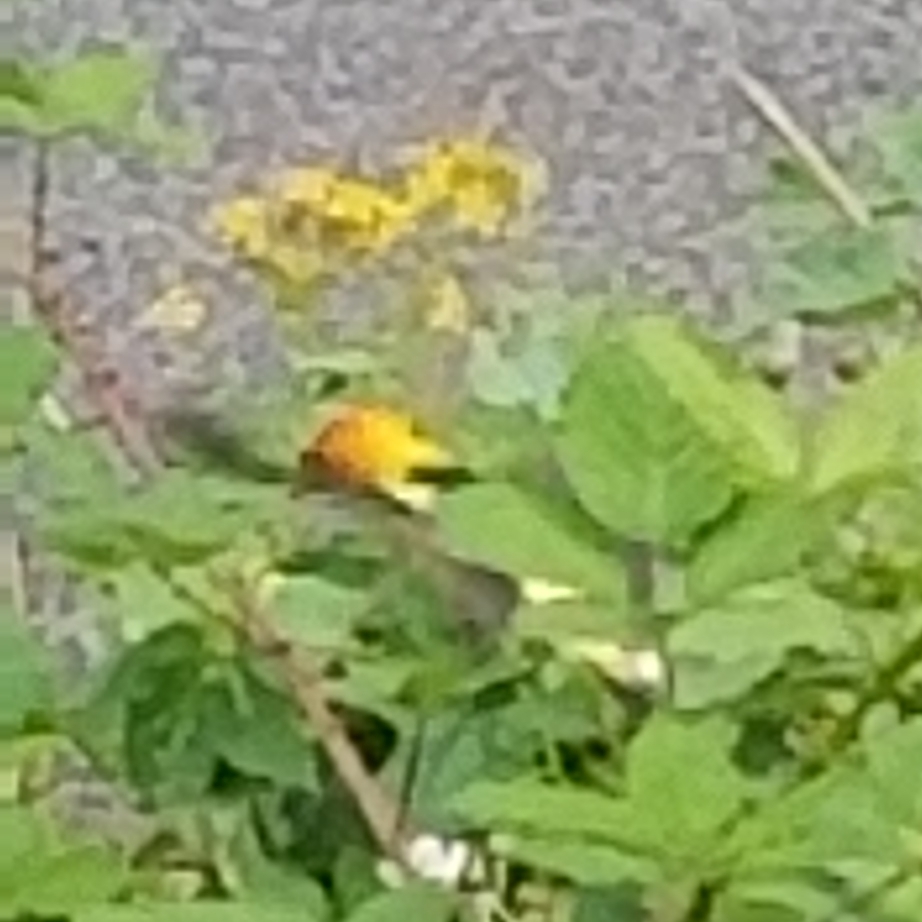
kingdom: Animalia
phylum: Chordata
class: Aves
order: Passeriformes
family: Cardinalidae
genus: Piranga
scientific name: Piranga ludoviciana
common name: Western tanager
